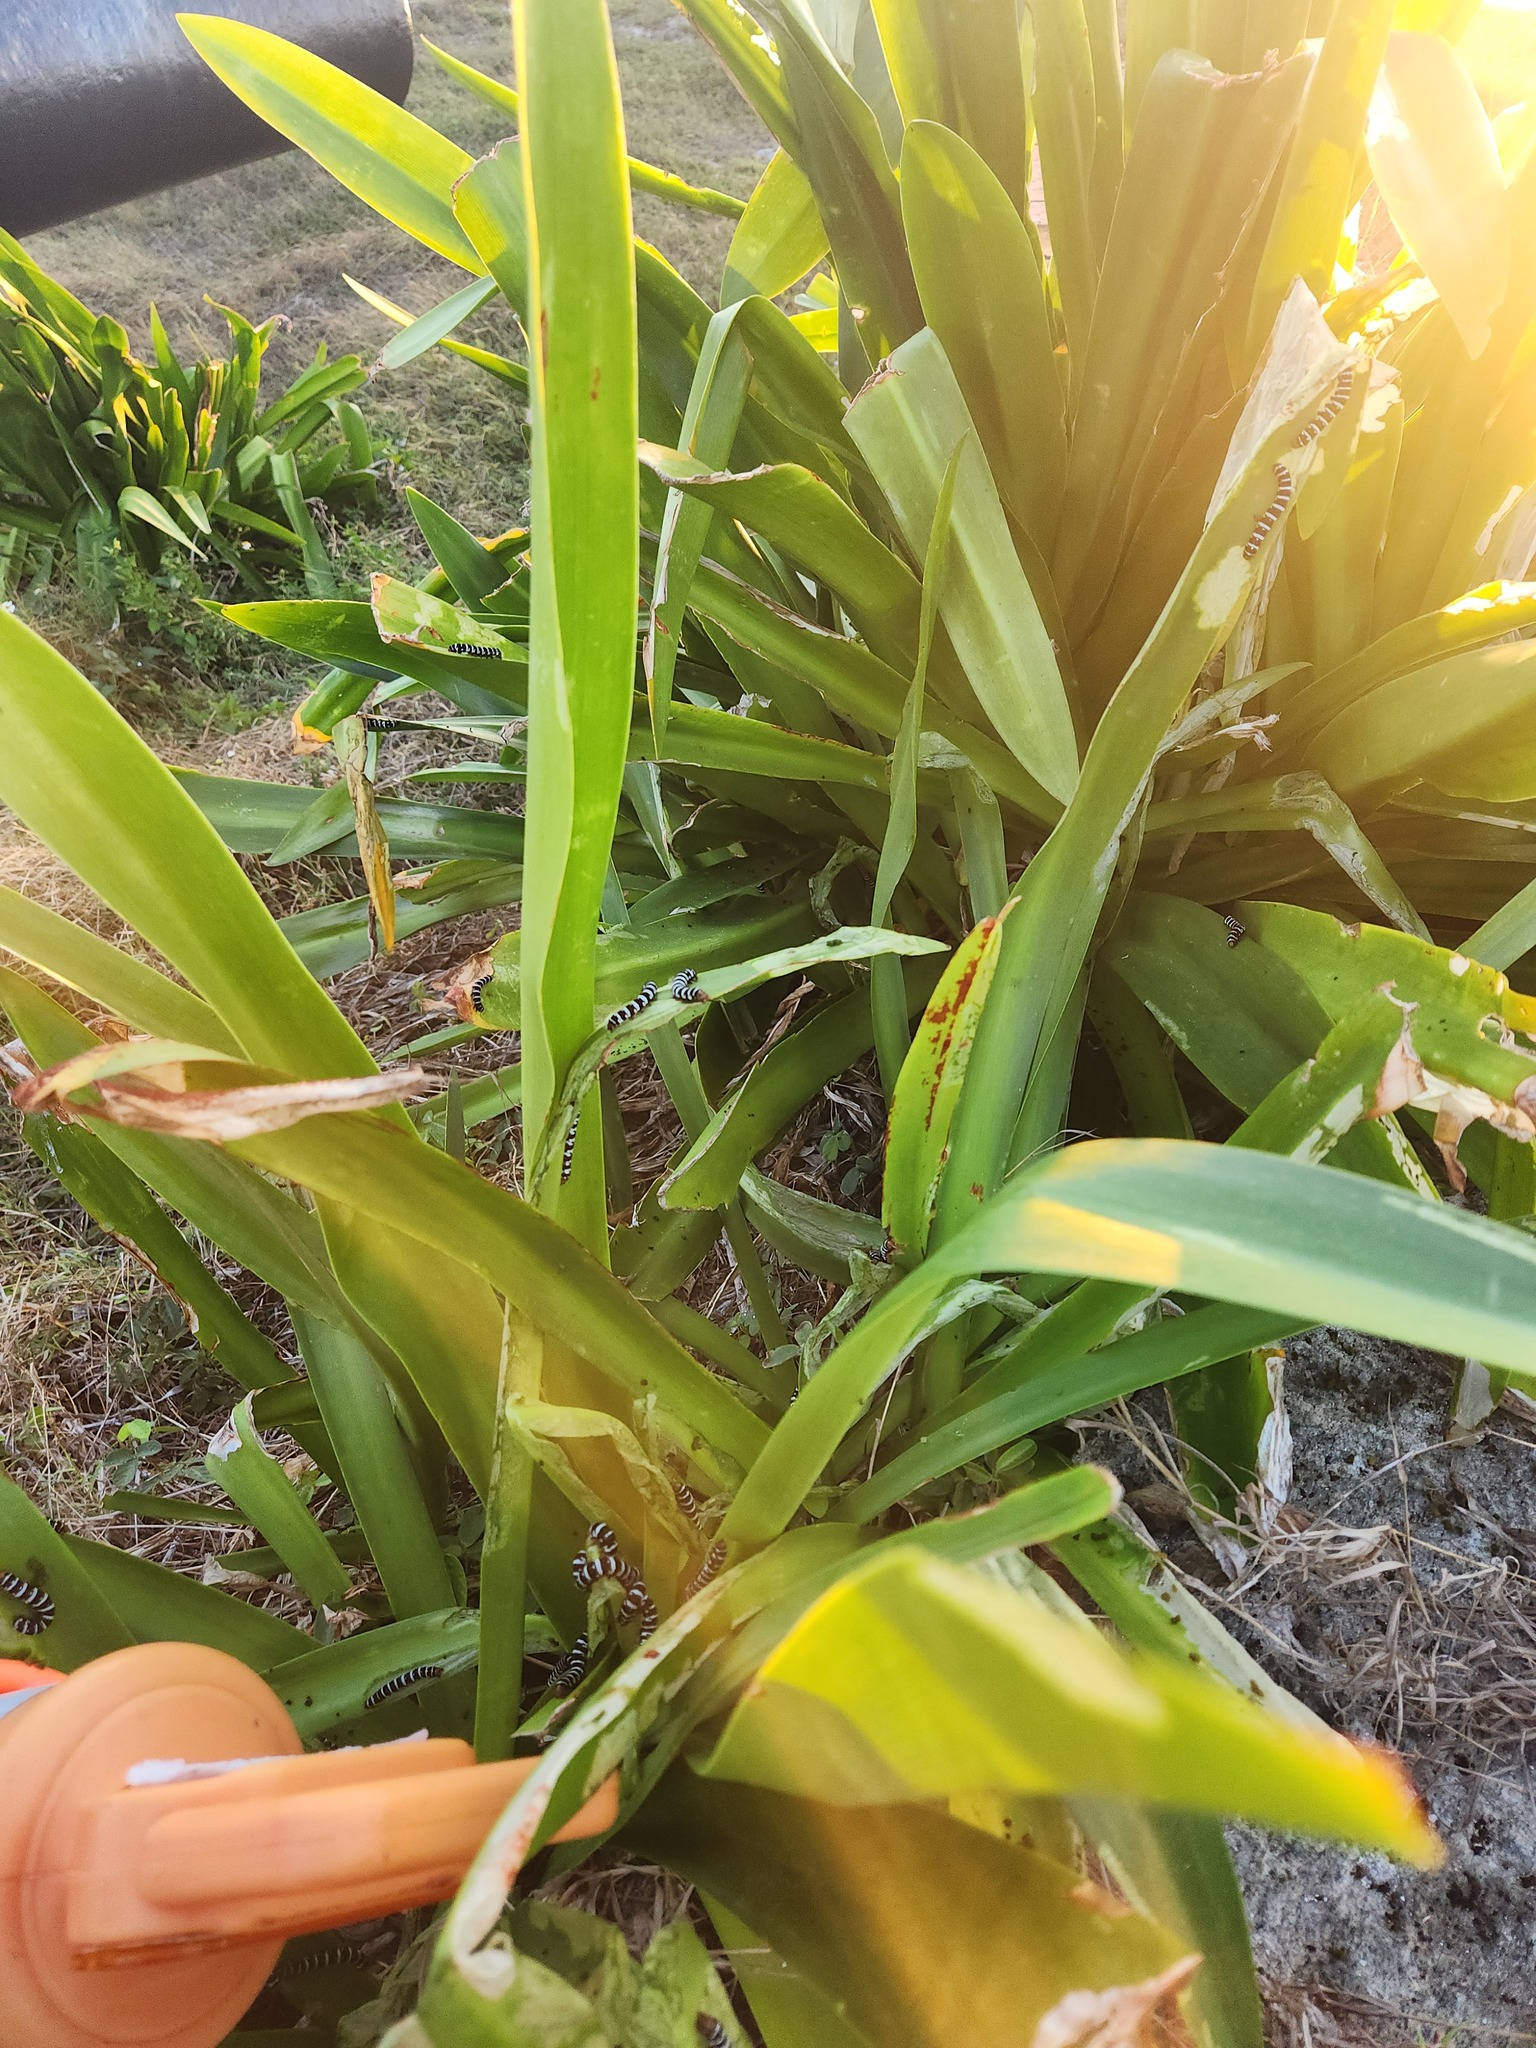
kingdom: Animalia
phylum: Arthropoda
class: Insecta
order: Lepidoptera
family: Noctuidae
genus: Xanthopastis
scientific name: Xanthopastis regnatrix
